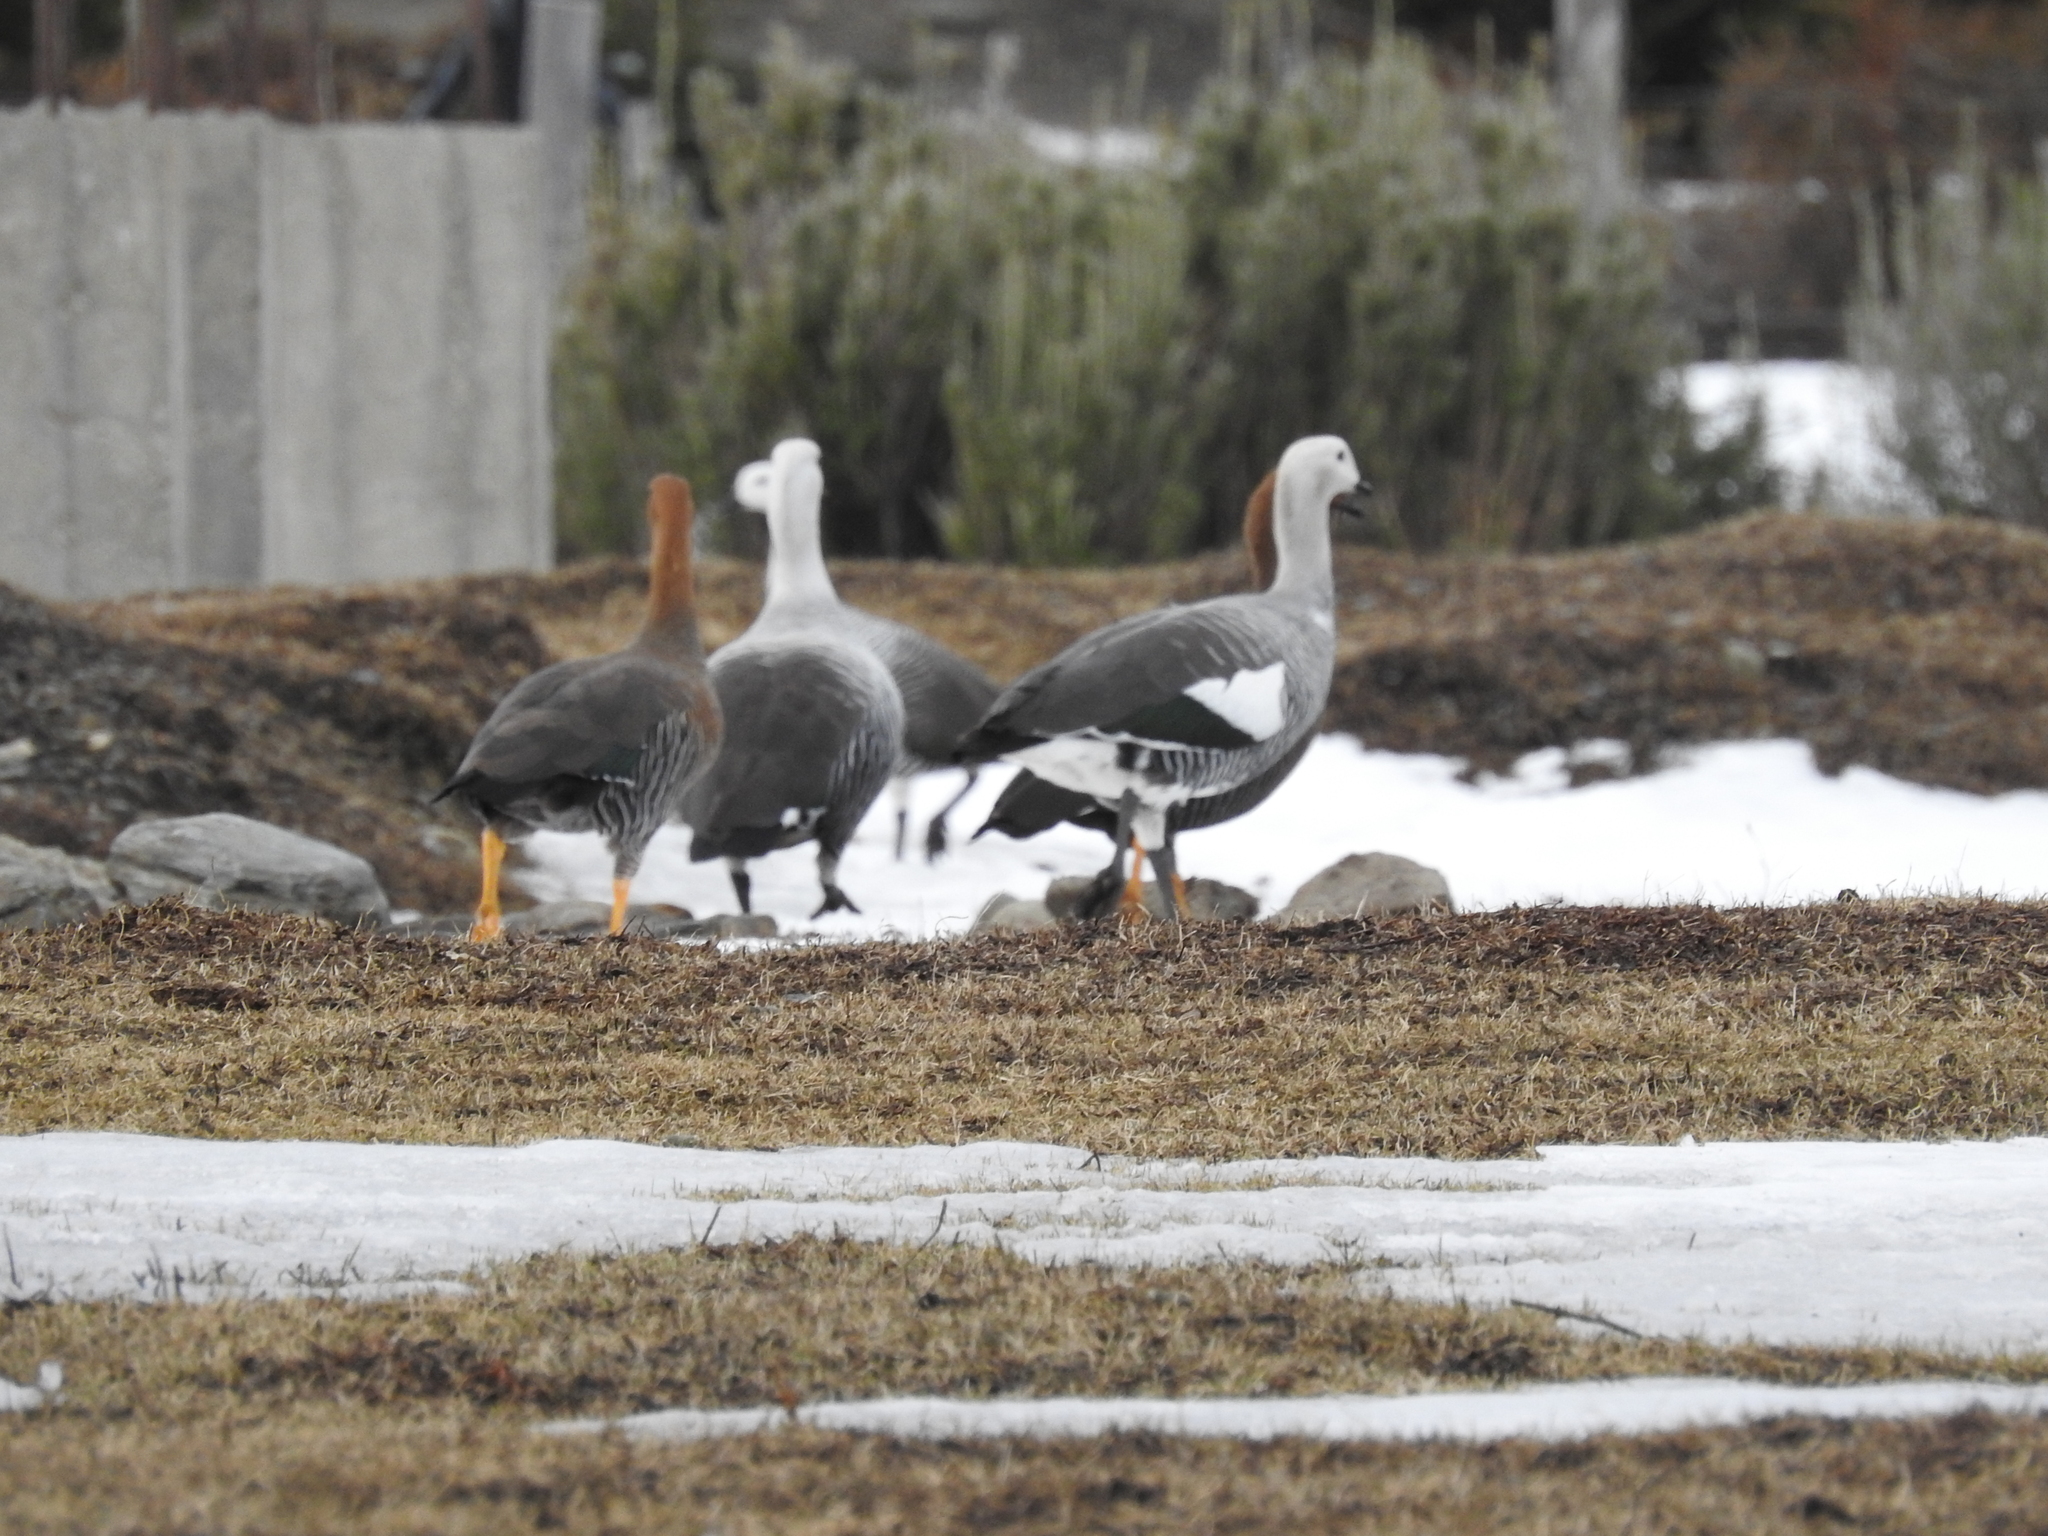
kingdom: Animalia
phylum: Chordata
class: Aves
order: Anseriformes
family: Anatidae
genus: Chloephaga
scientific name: Chloephaga picta
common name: Upland goose
